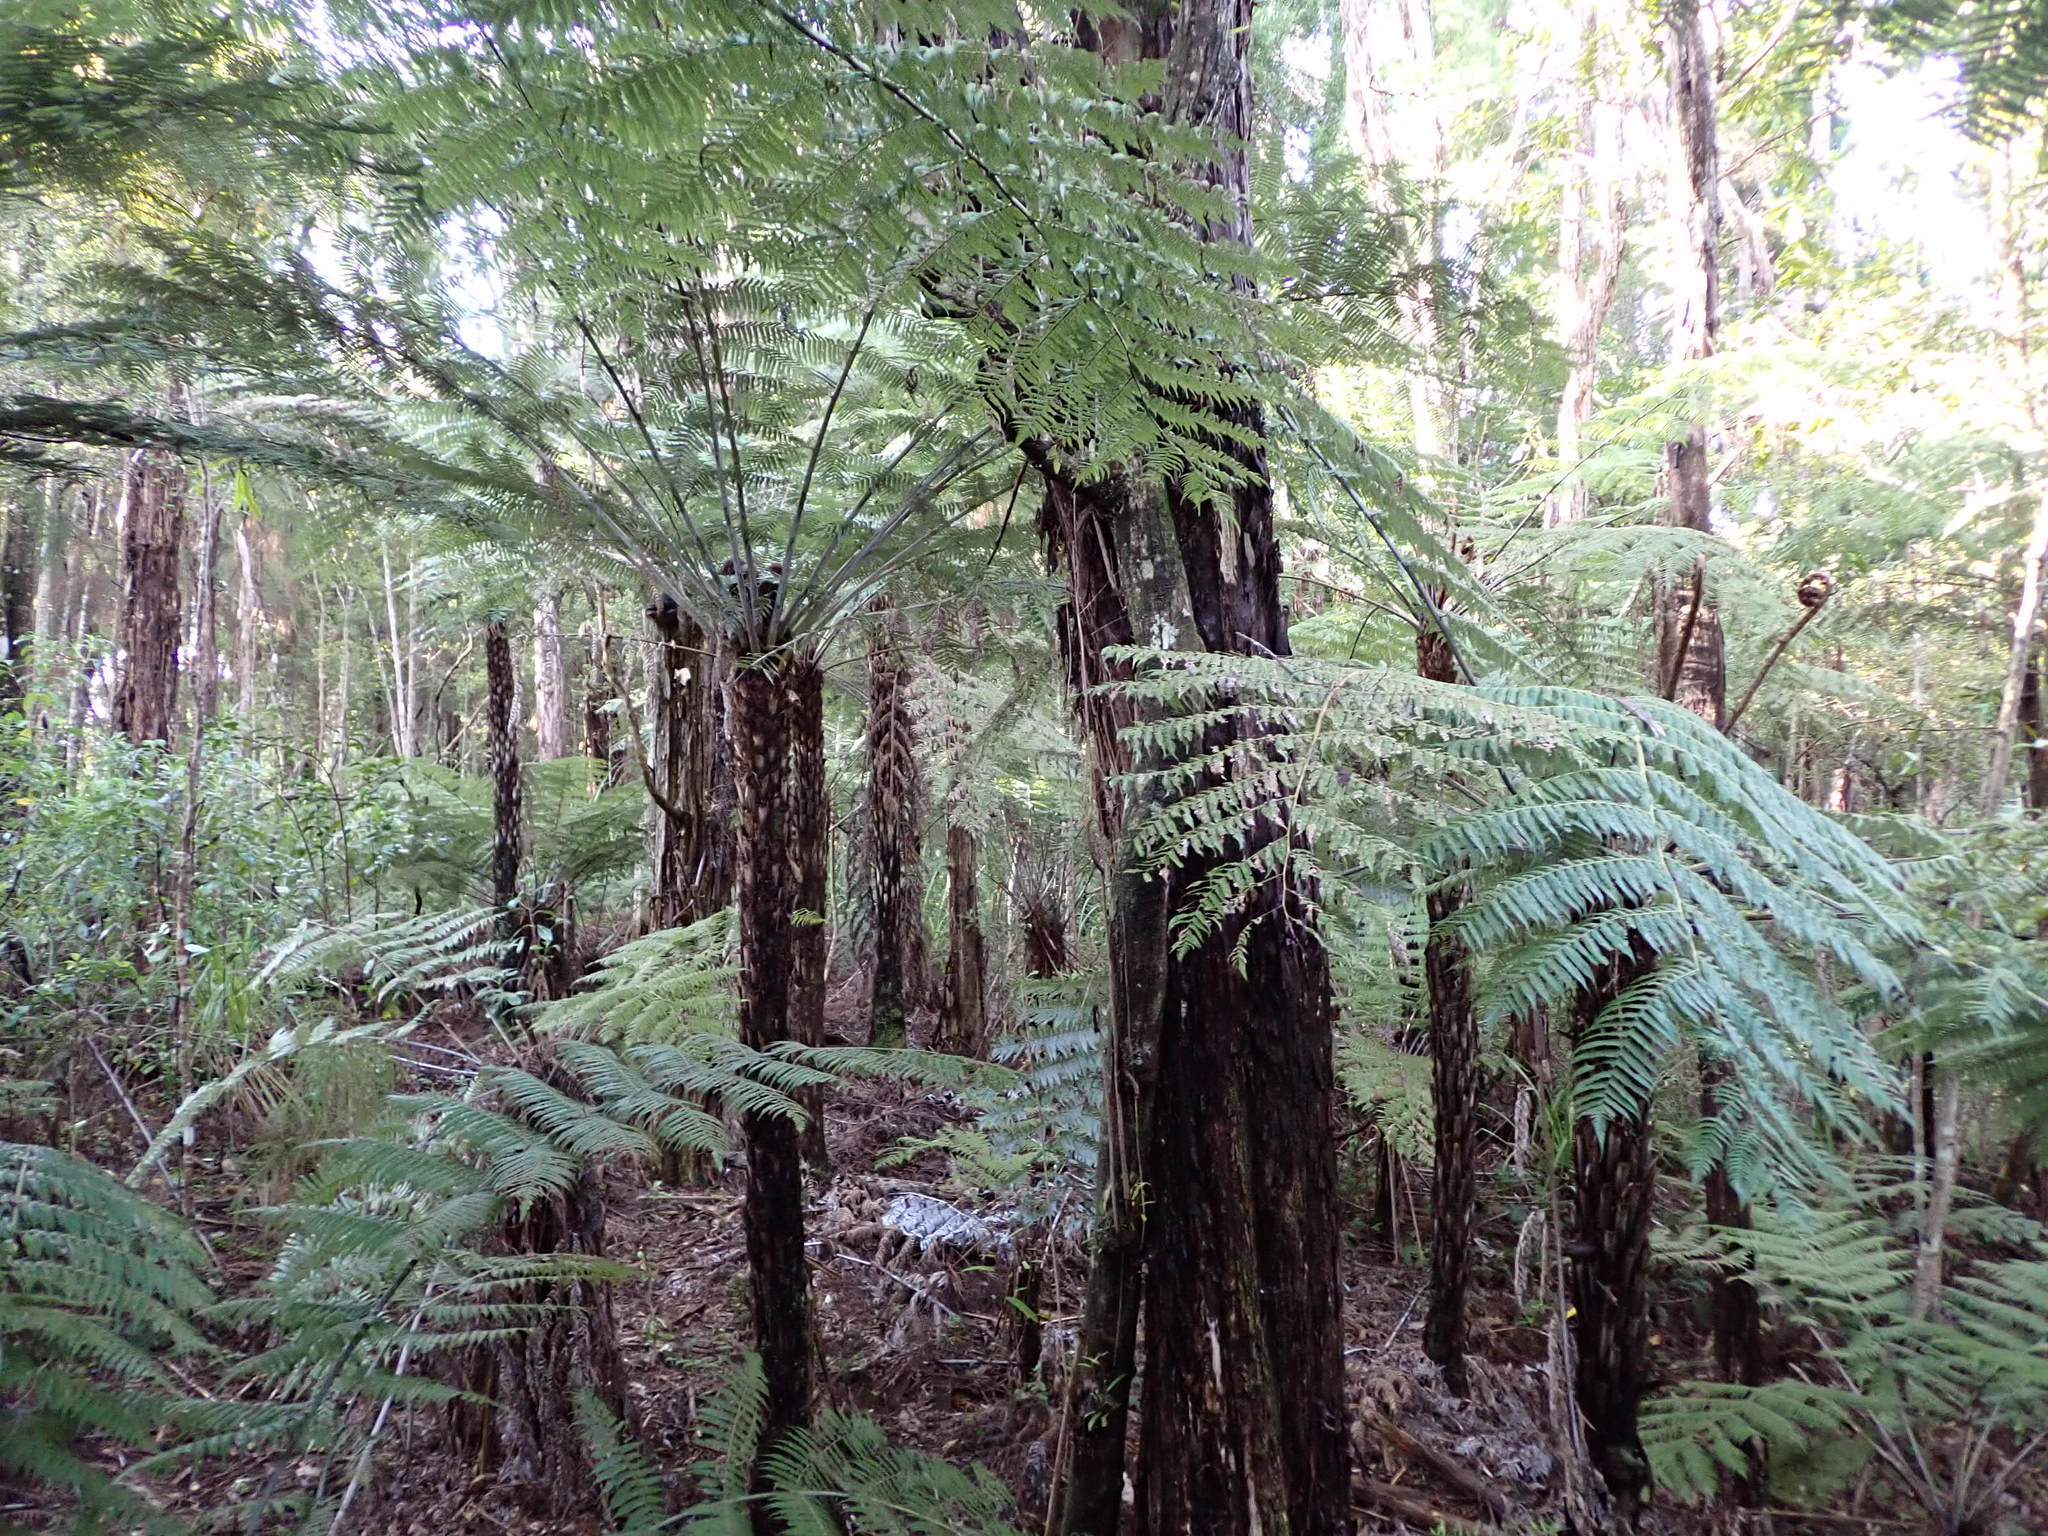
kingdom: Plantae
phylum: Tracheophyta
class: Polypodiopsida
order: Cyatheales
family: Cyatheaceae
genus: Alsophila
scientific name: Alsophila dealbata
